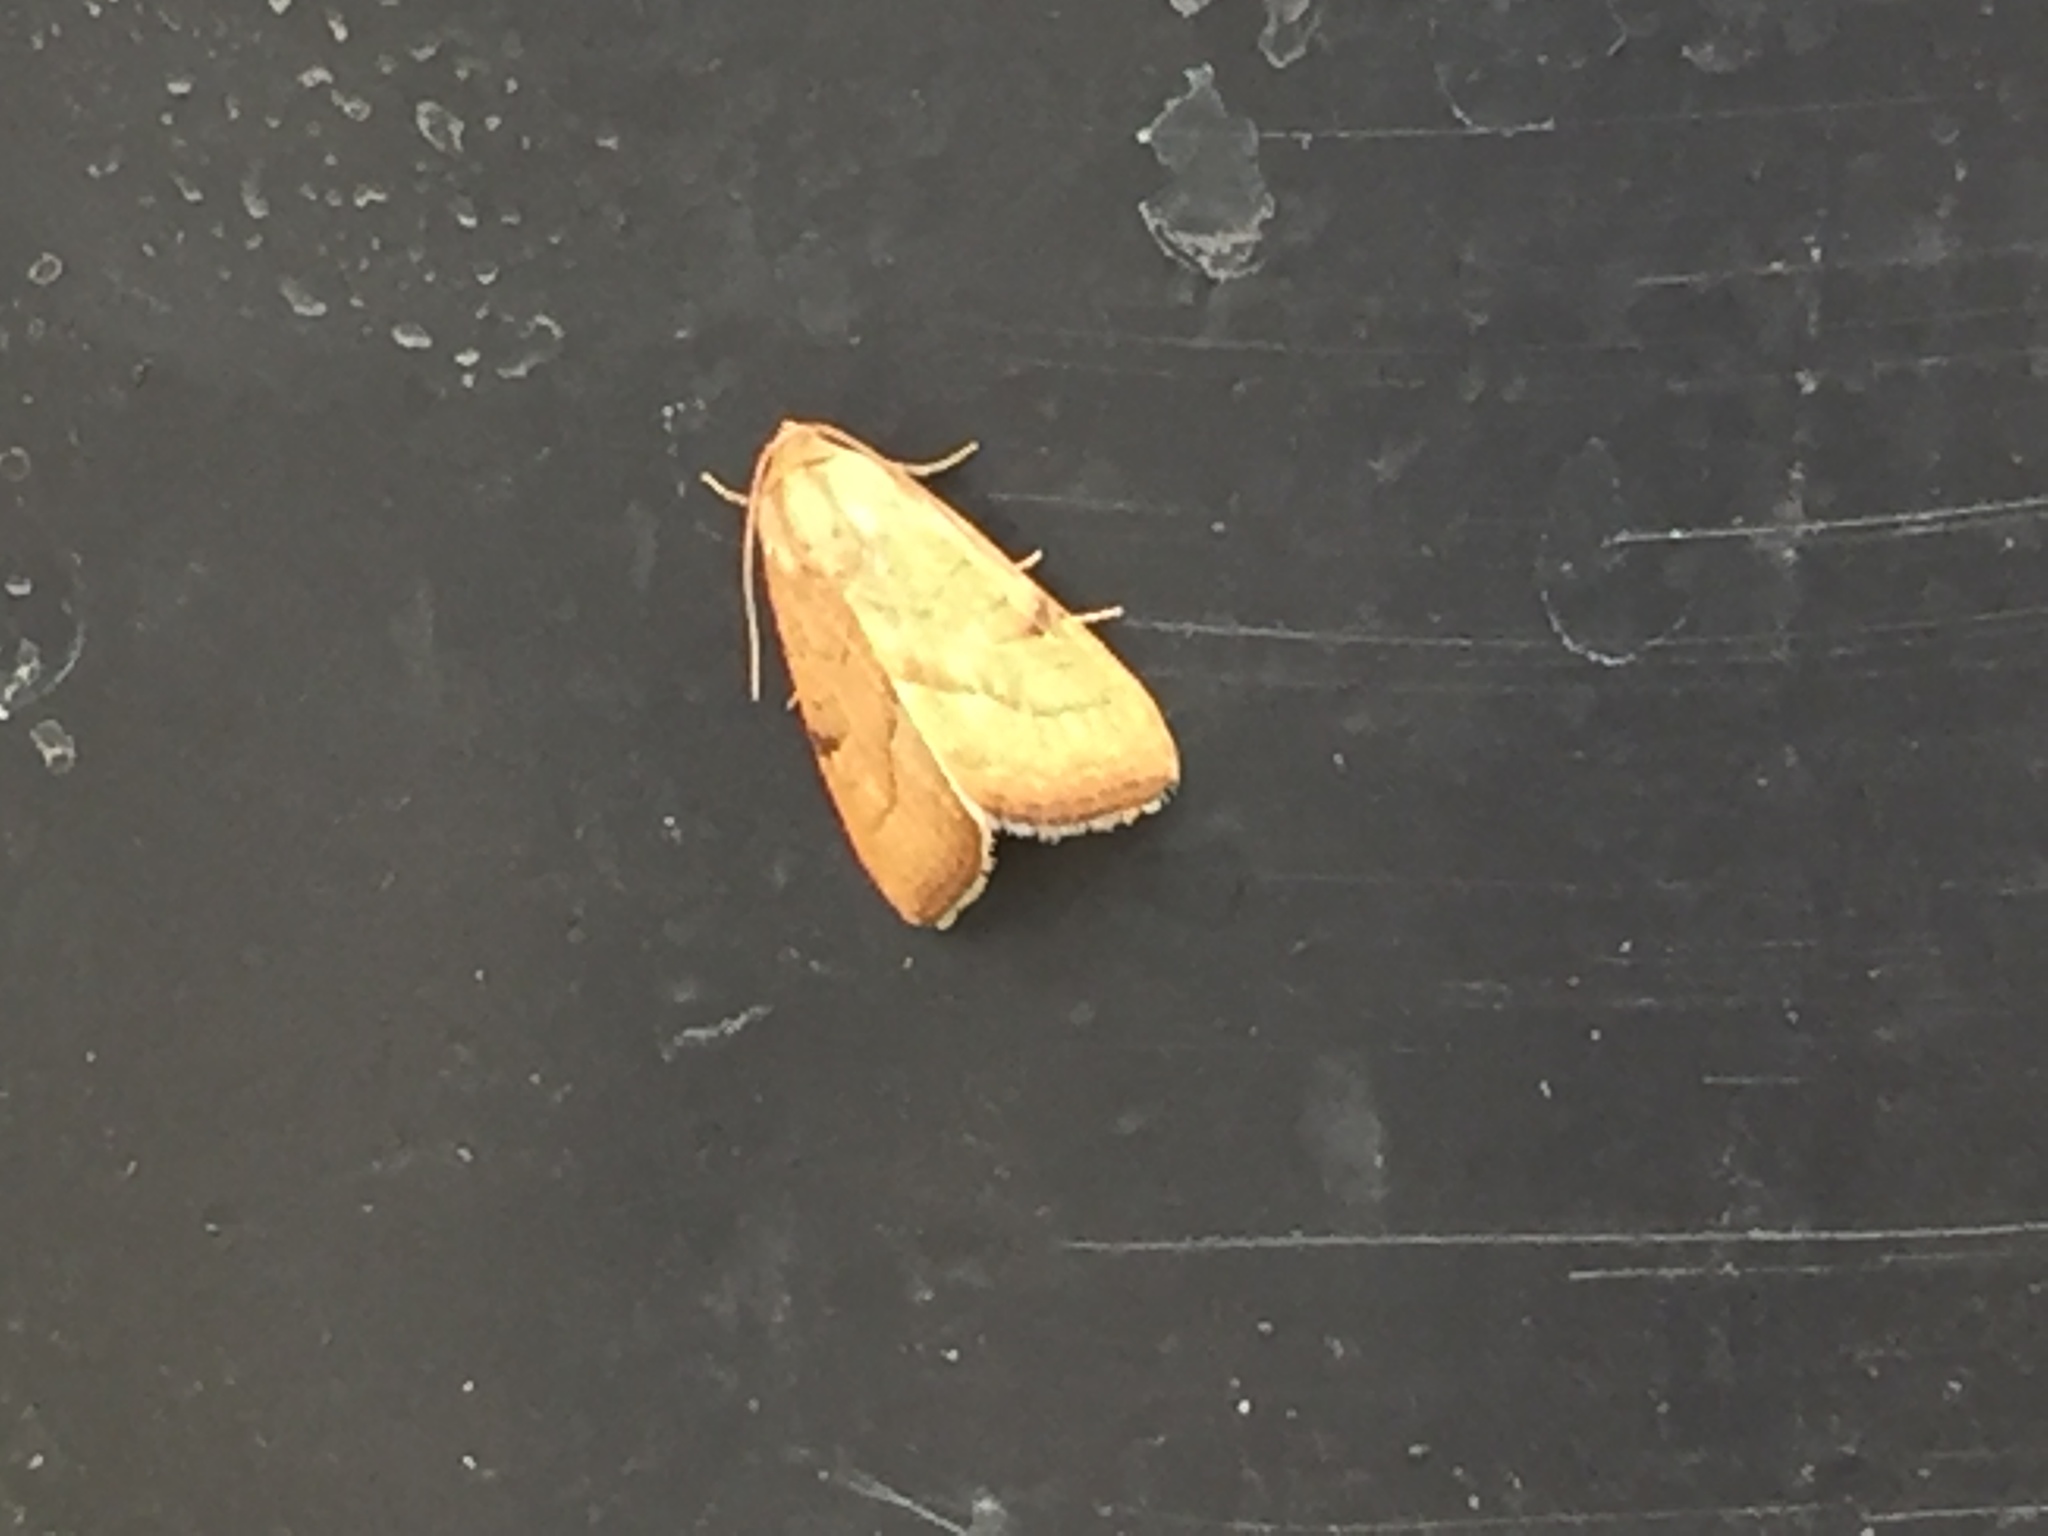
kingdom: Animalia
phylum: Arthropoda
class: Insecta
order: Lepidoptera
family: Noctuidae
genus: Galgula
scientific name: Galgula partita
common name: Wedgeling
